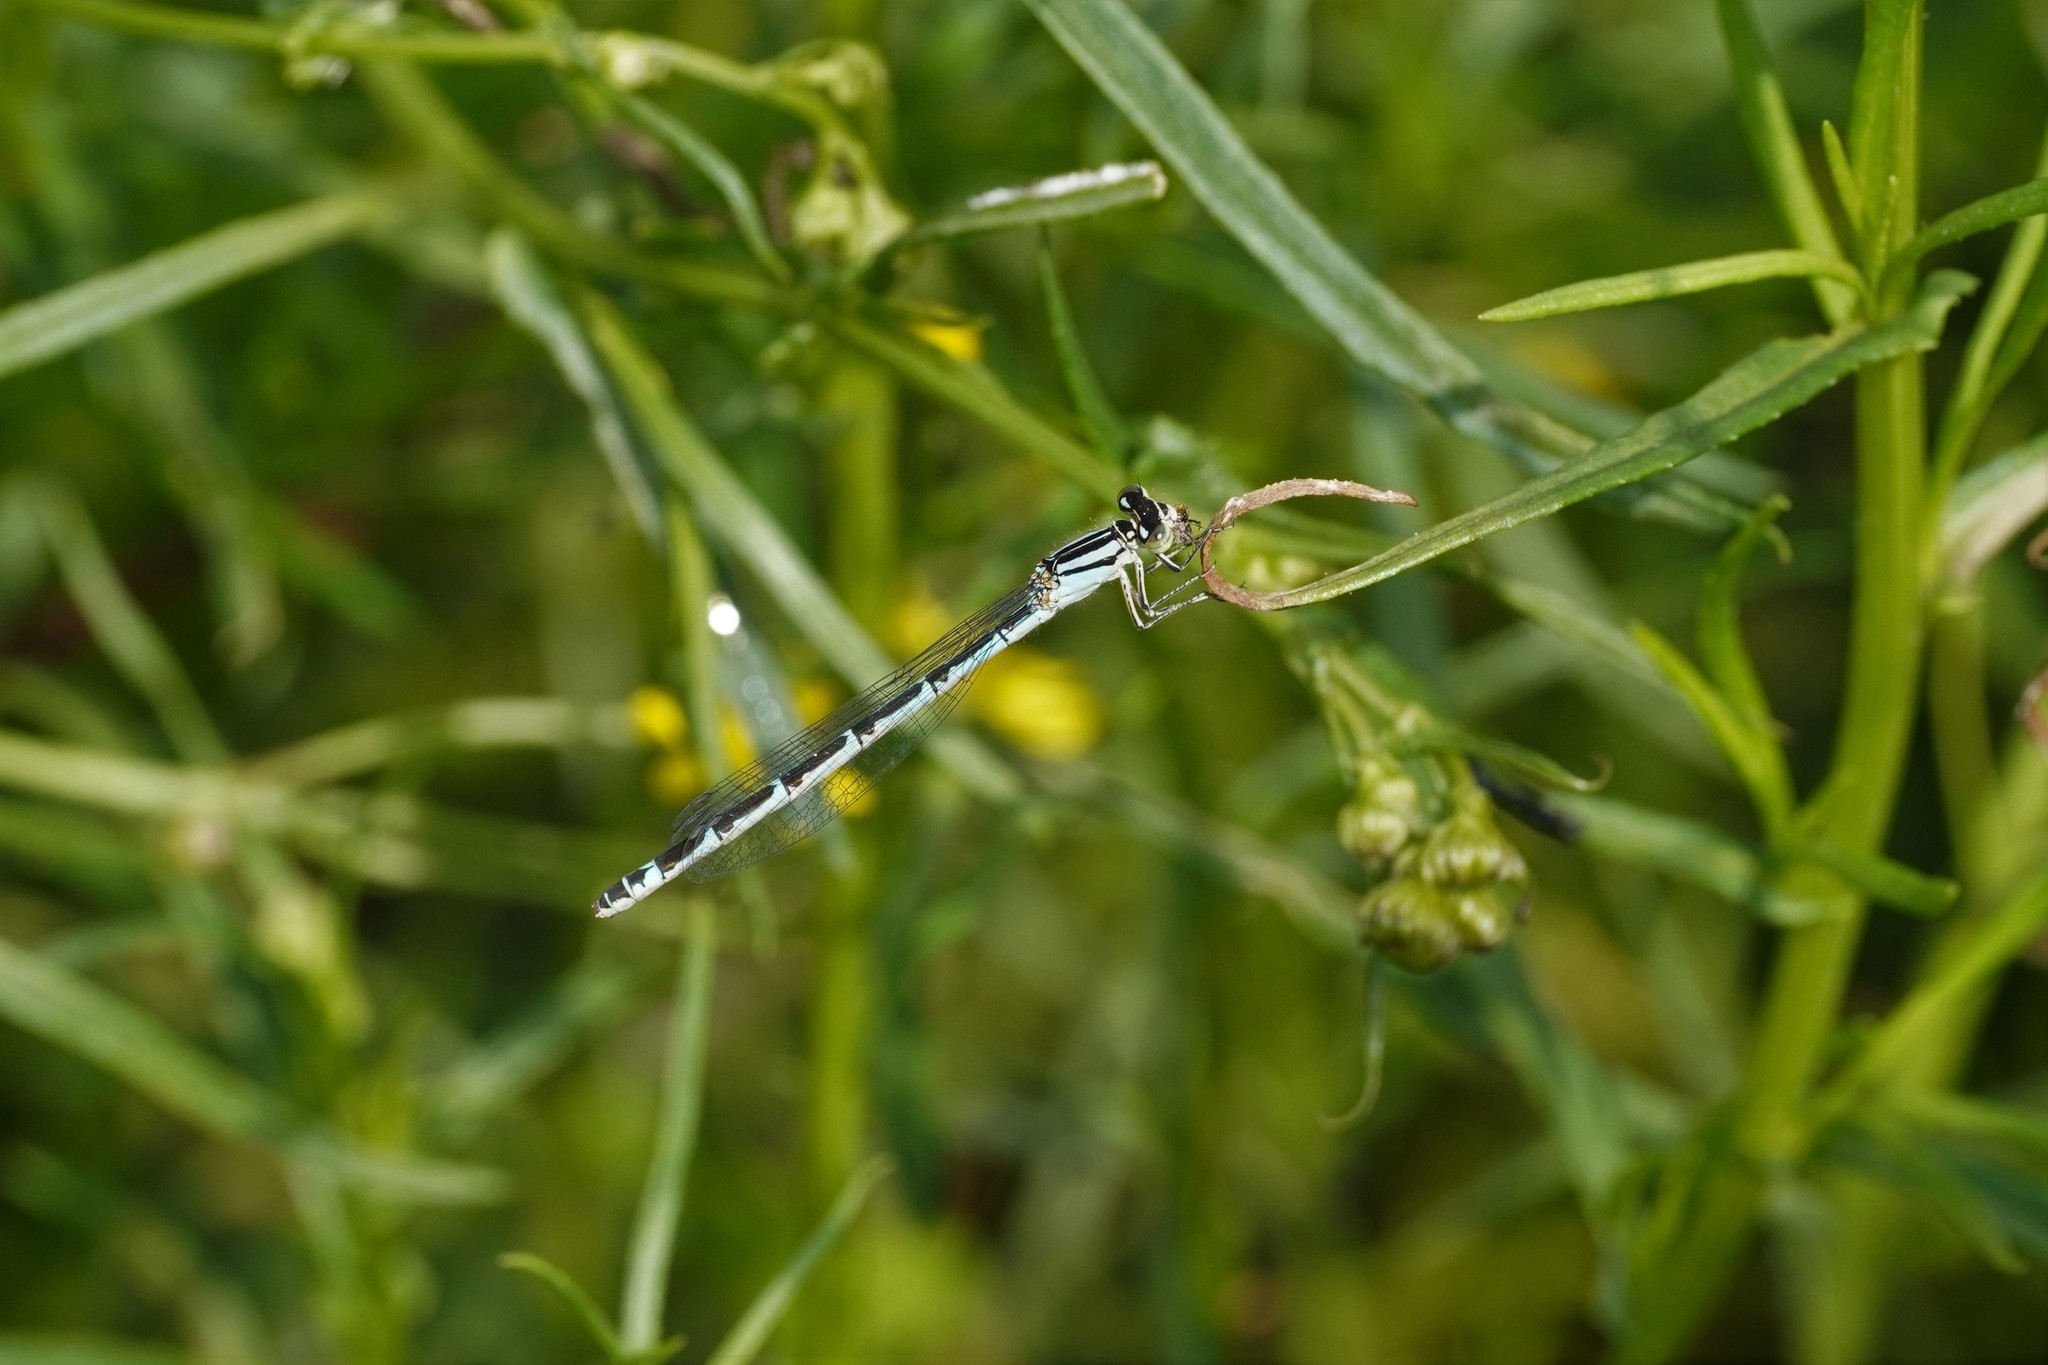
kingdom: Animalia
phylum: Arthropoda
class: Insecta
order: Odonata
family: Coenagrionidae
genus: Enallagma
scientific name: Enallagma cyathigerum
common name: Common blue damselfly
